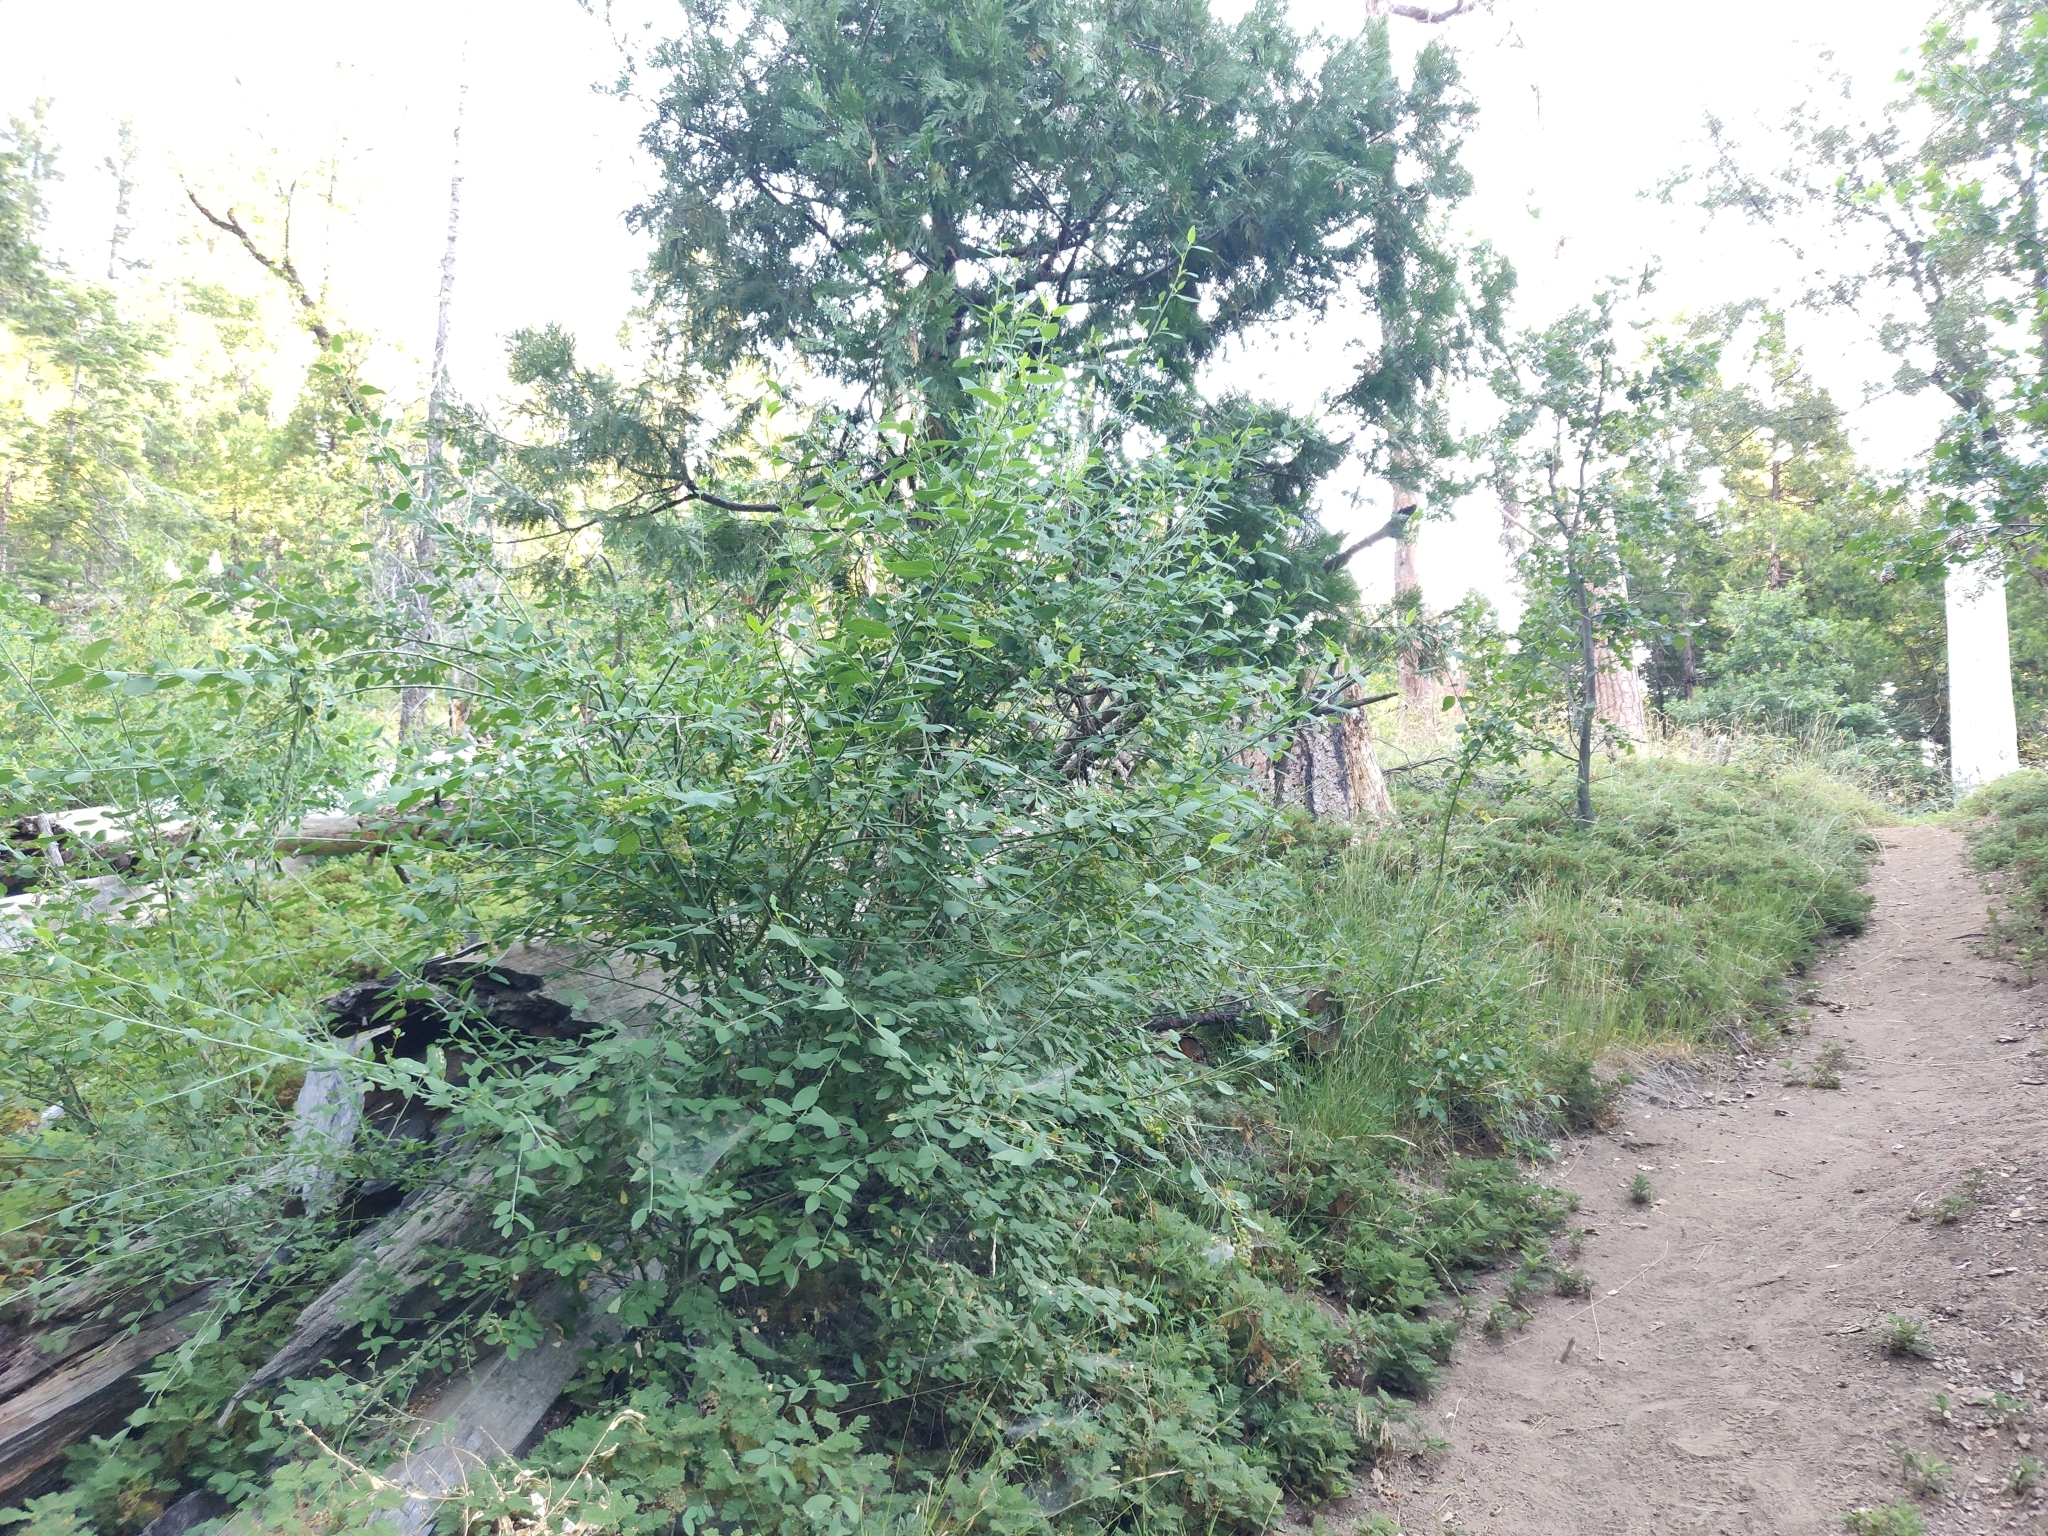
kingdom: Plantae
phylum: Tracheophyta
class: Magnoliopsida
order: Rosales
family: Rhamnaceae
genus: Ceanothus
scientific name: Ceanothus integerrimus
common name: Deerbrush ceanothus
